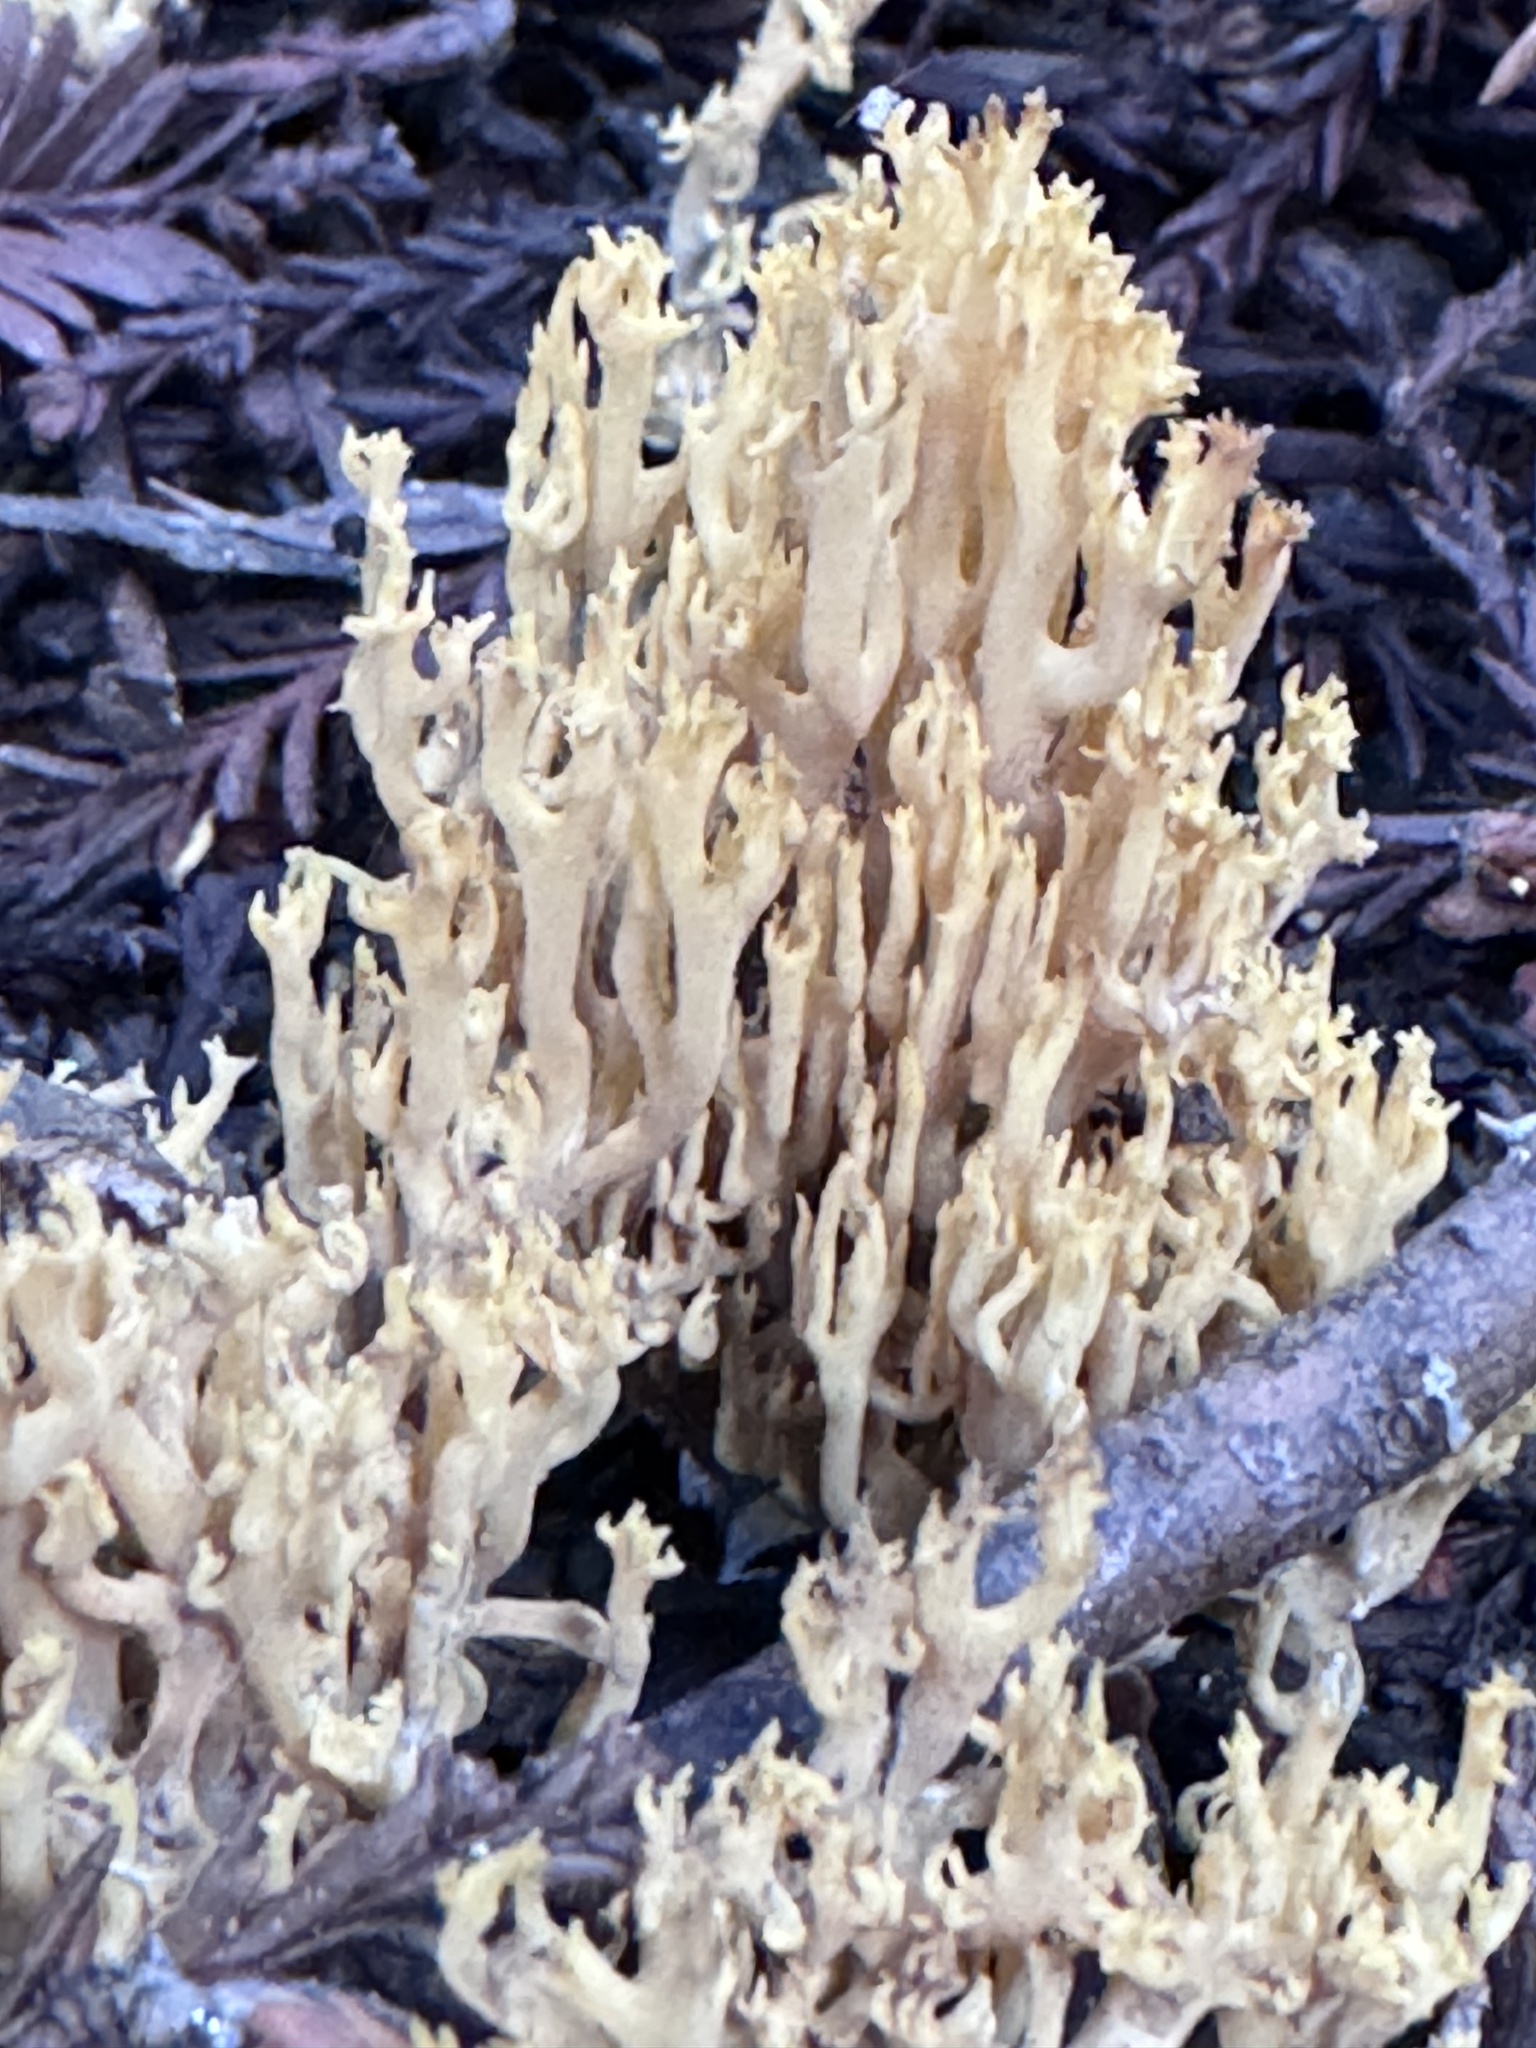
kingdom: Fungi
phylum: Basidiomycota
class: Agaricomycetes
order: Gomphales
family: Gomphaceae
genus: Phaeoclavulina
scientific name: Phaeoclavulina myceliosa
